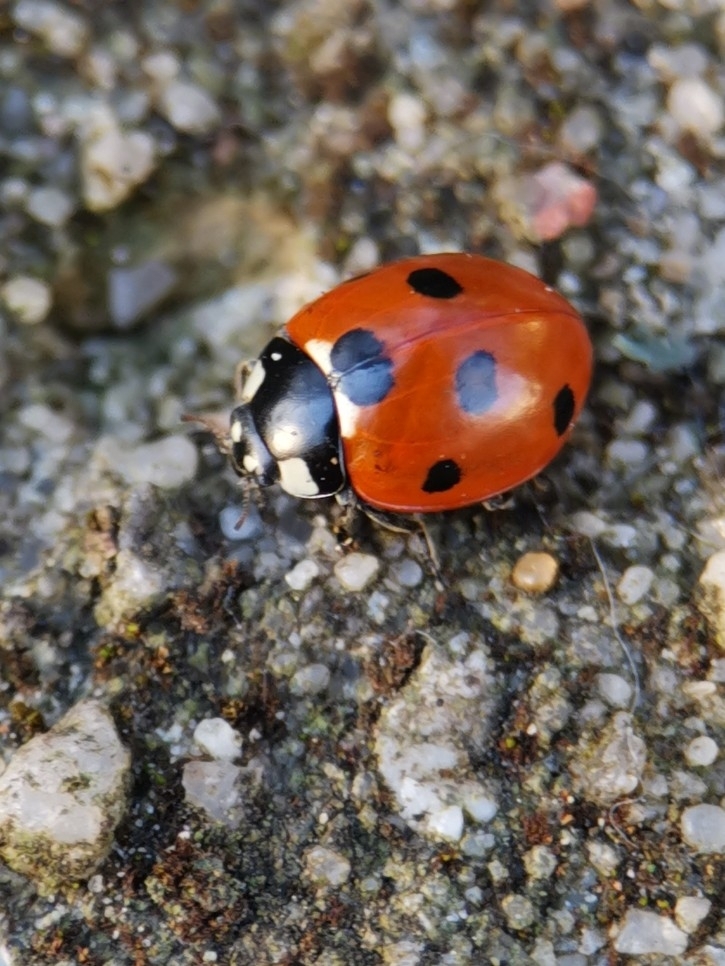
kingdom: Animalia
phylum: Arthropoda
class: Insecta
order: Coleoptera
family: Coccinellidae
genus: Coccinella
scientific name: Coccinella septempunctata
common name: Sevenspotted lady beetle
